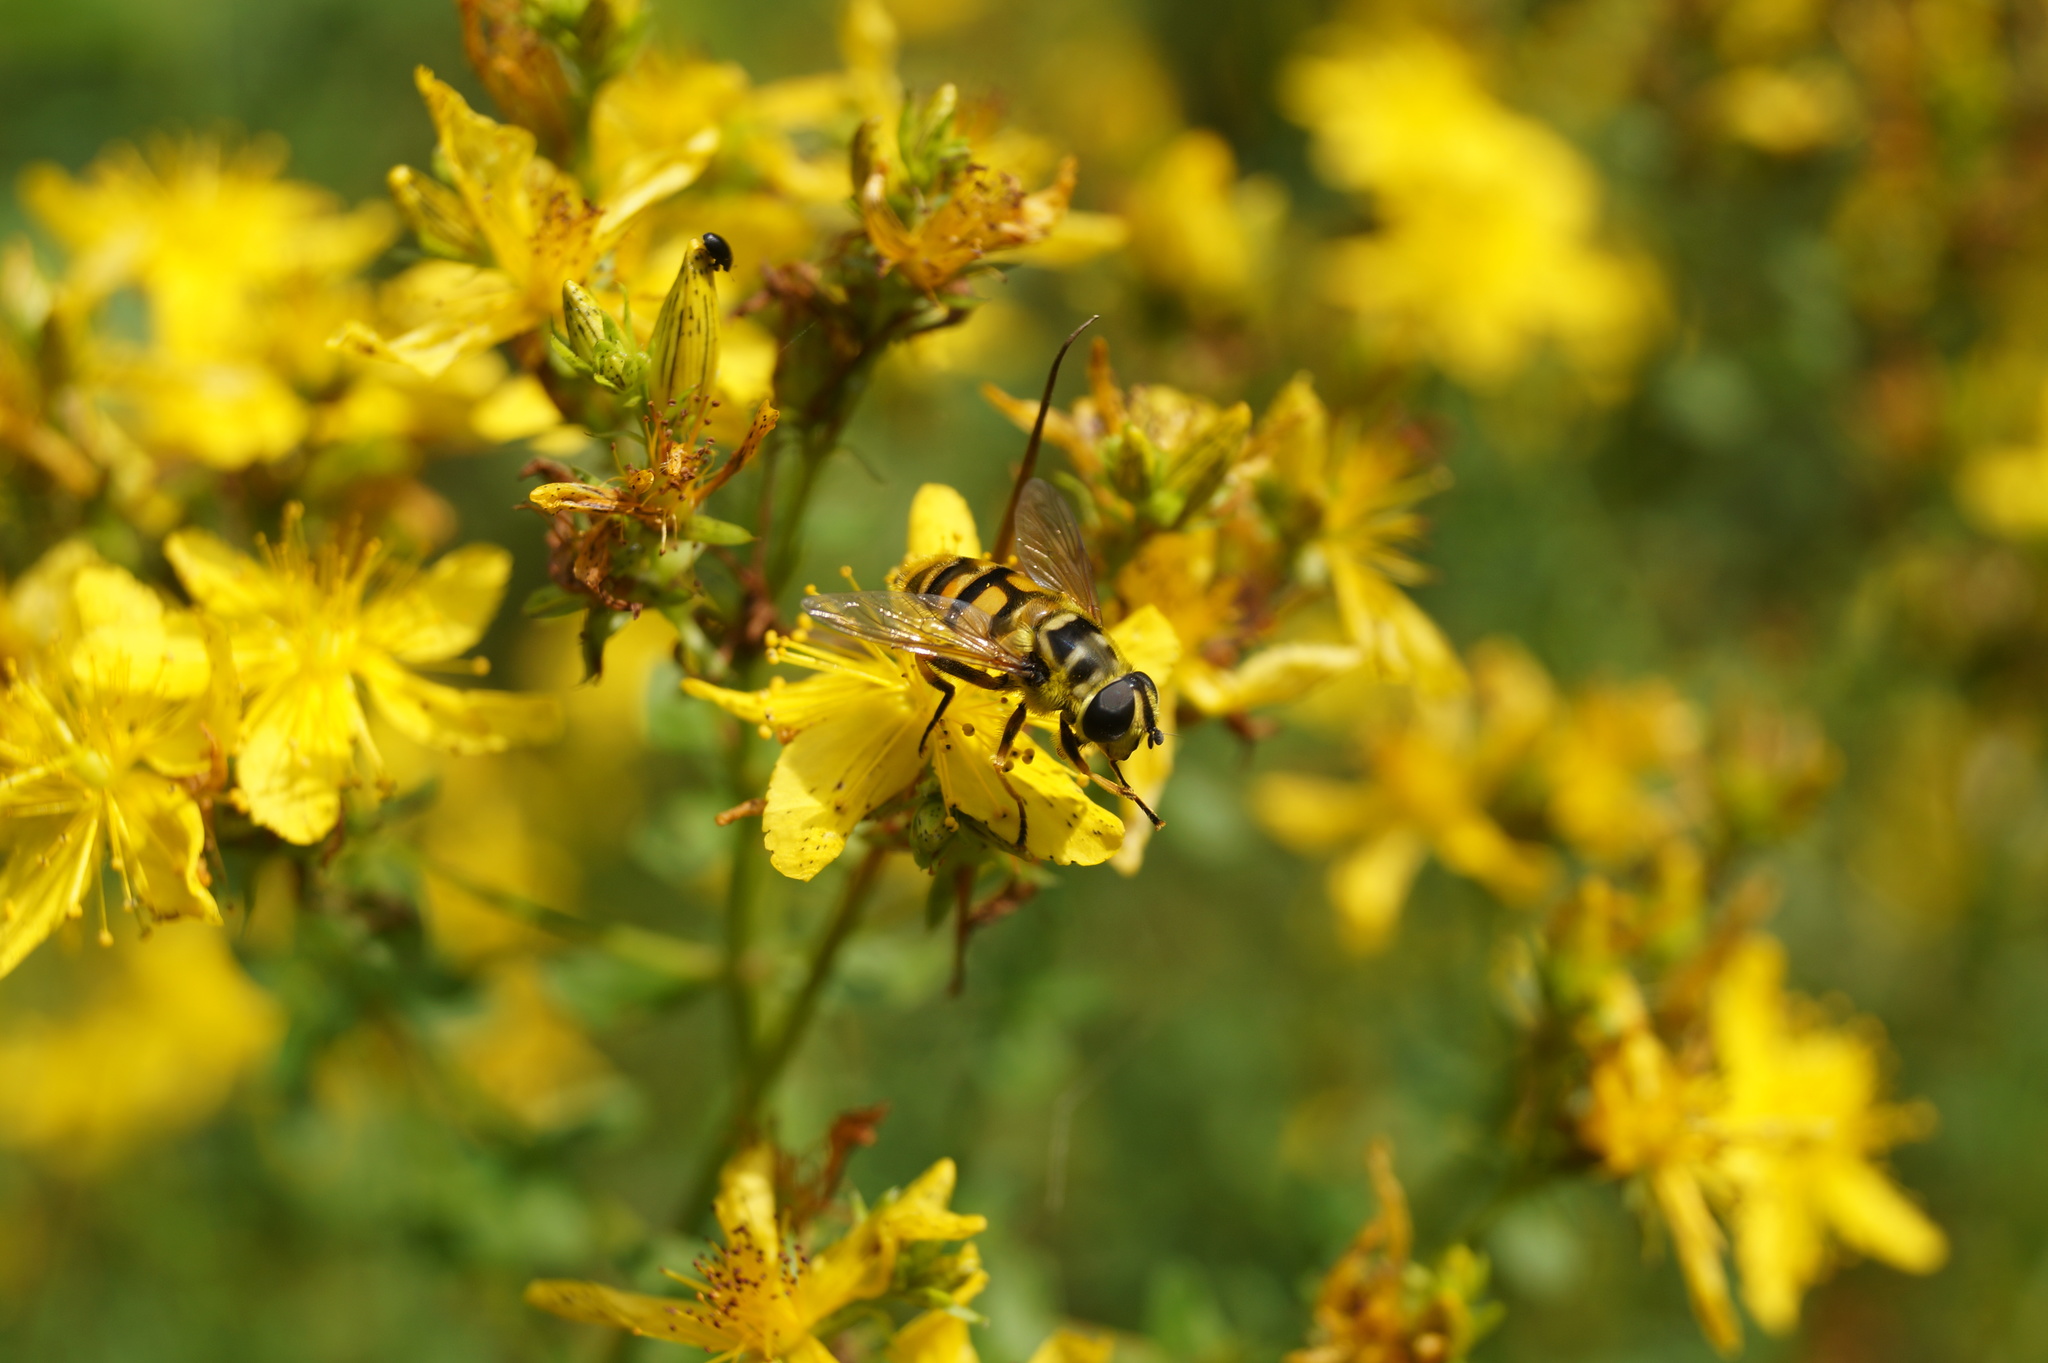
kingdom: Animalia
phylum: Arthropoda
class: Insecta
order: Diptera
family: Syrphidae
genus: Myathropa
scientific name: Myathropa florea
